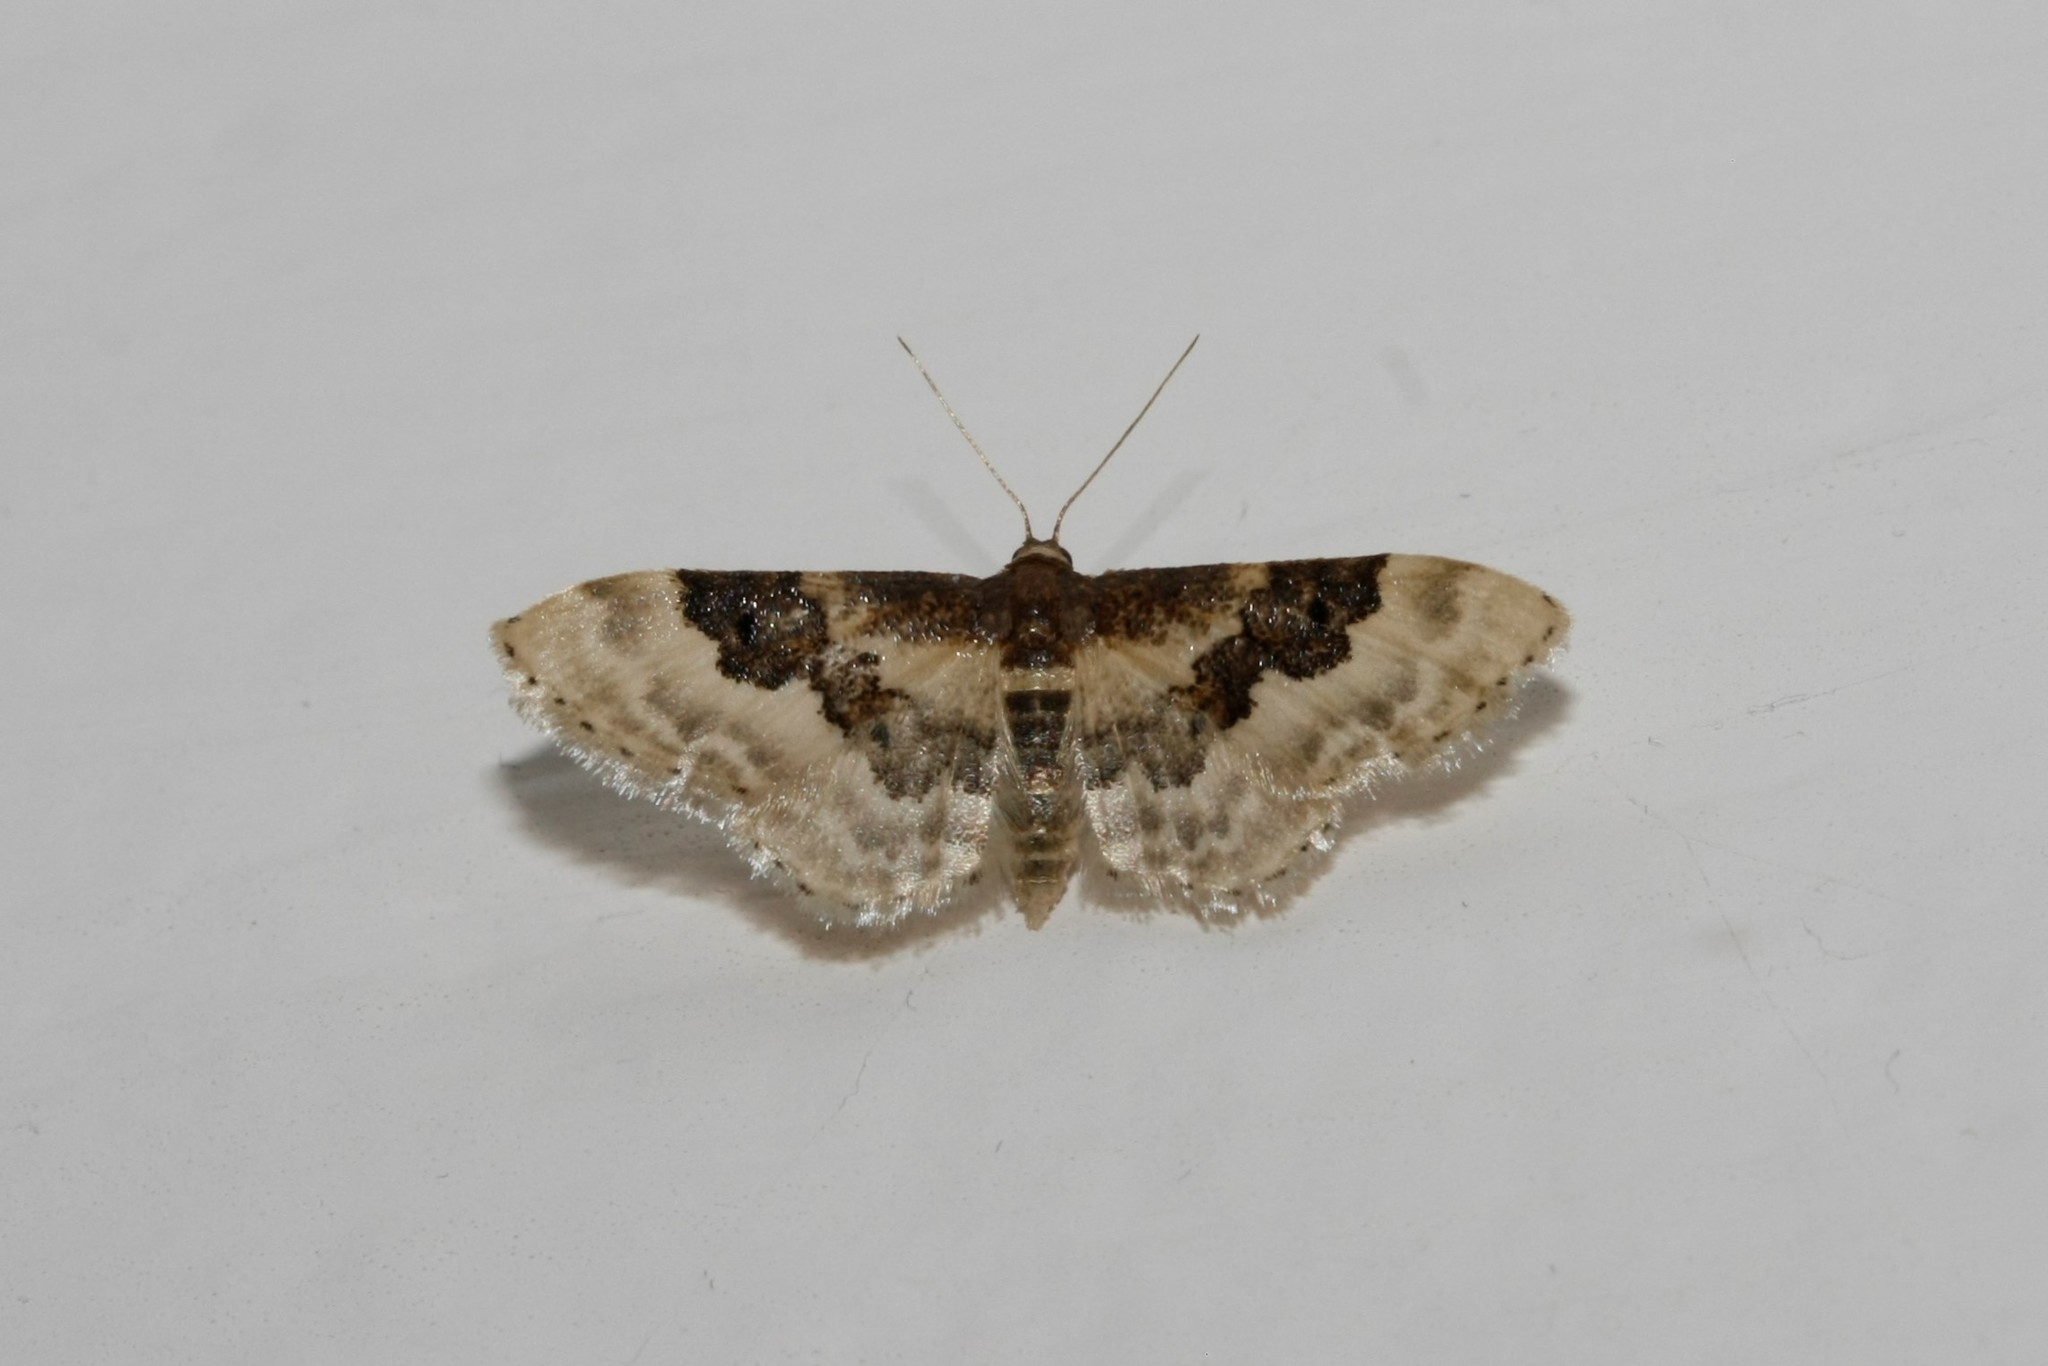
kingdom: Animalia
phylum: Arthropoda
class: Insecta
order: Lepidoptera
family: Geometridae
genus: Idaea
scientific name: Idaea rusticata
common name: Least carpet
